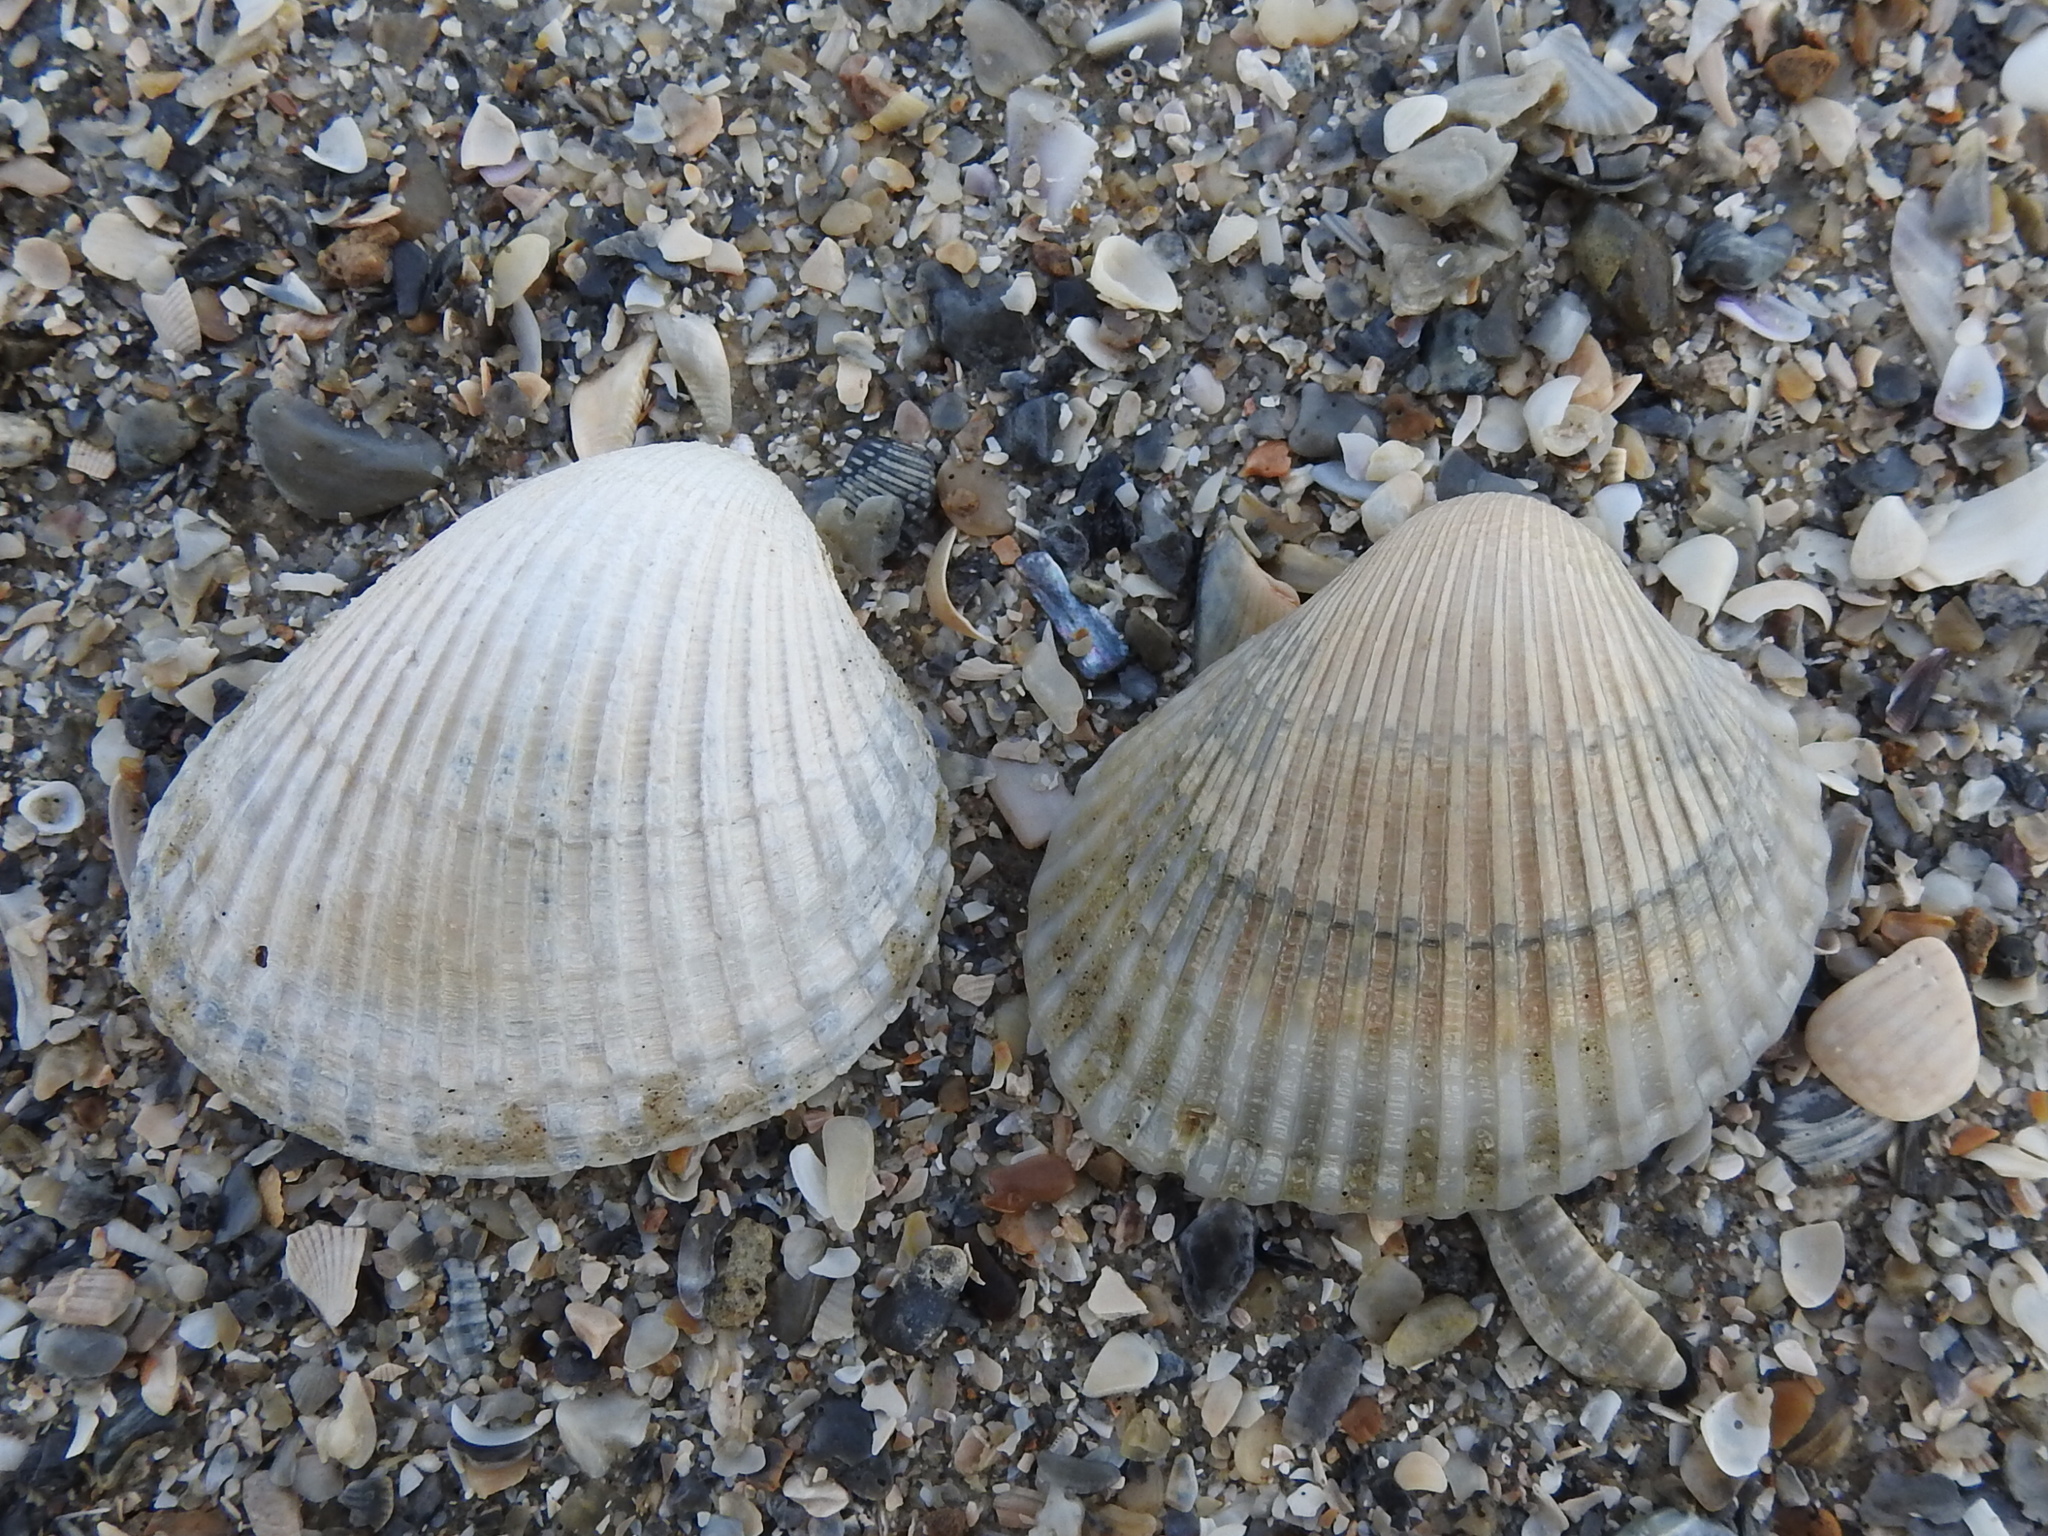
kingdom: Animalia
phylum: Mollusca
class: Bivalvia
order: Arcida
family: Arcidae
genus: Lunarca
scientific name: Lunarca ovalis
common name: Blood ark
